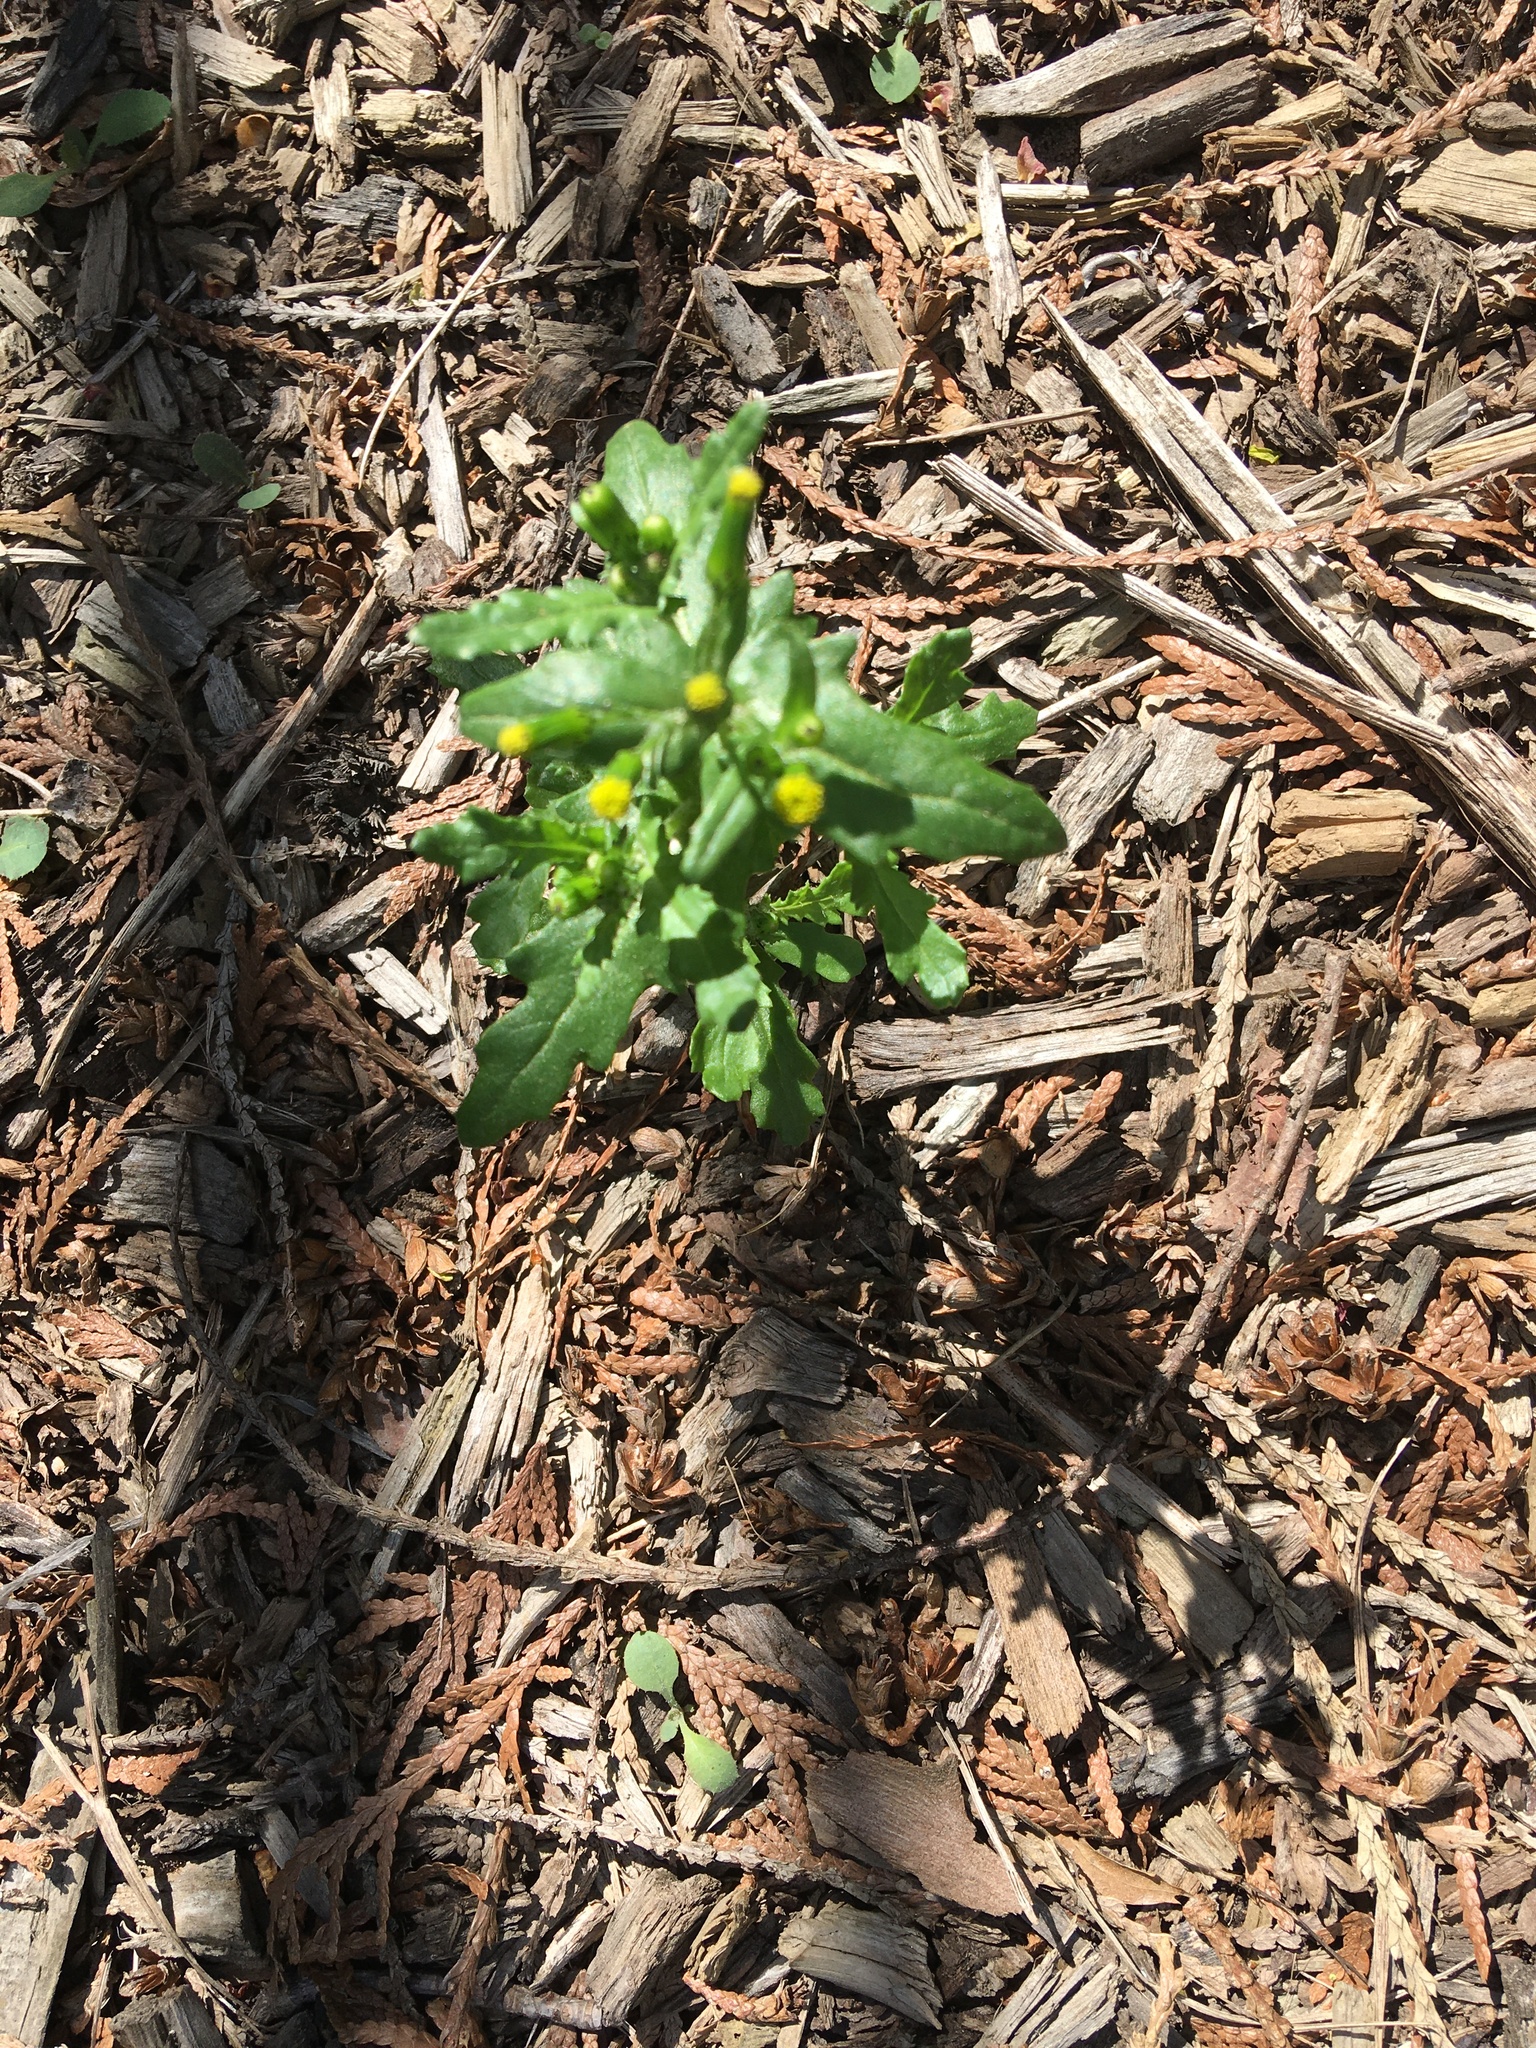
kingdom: Plantae
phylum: Tracheophyta
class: Magnoliopsida
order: Asterales
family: Asteraceae
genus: Senecio
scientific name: Senecio vulgaris
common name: Old-man-in-the-spring
